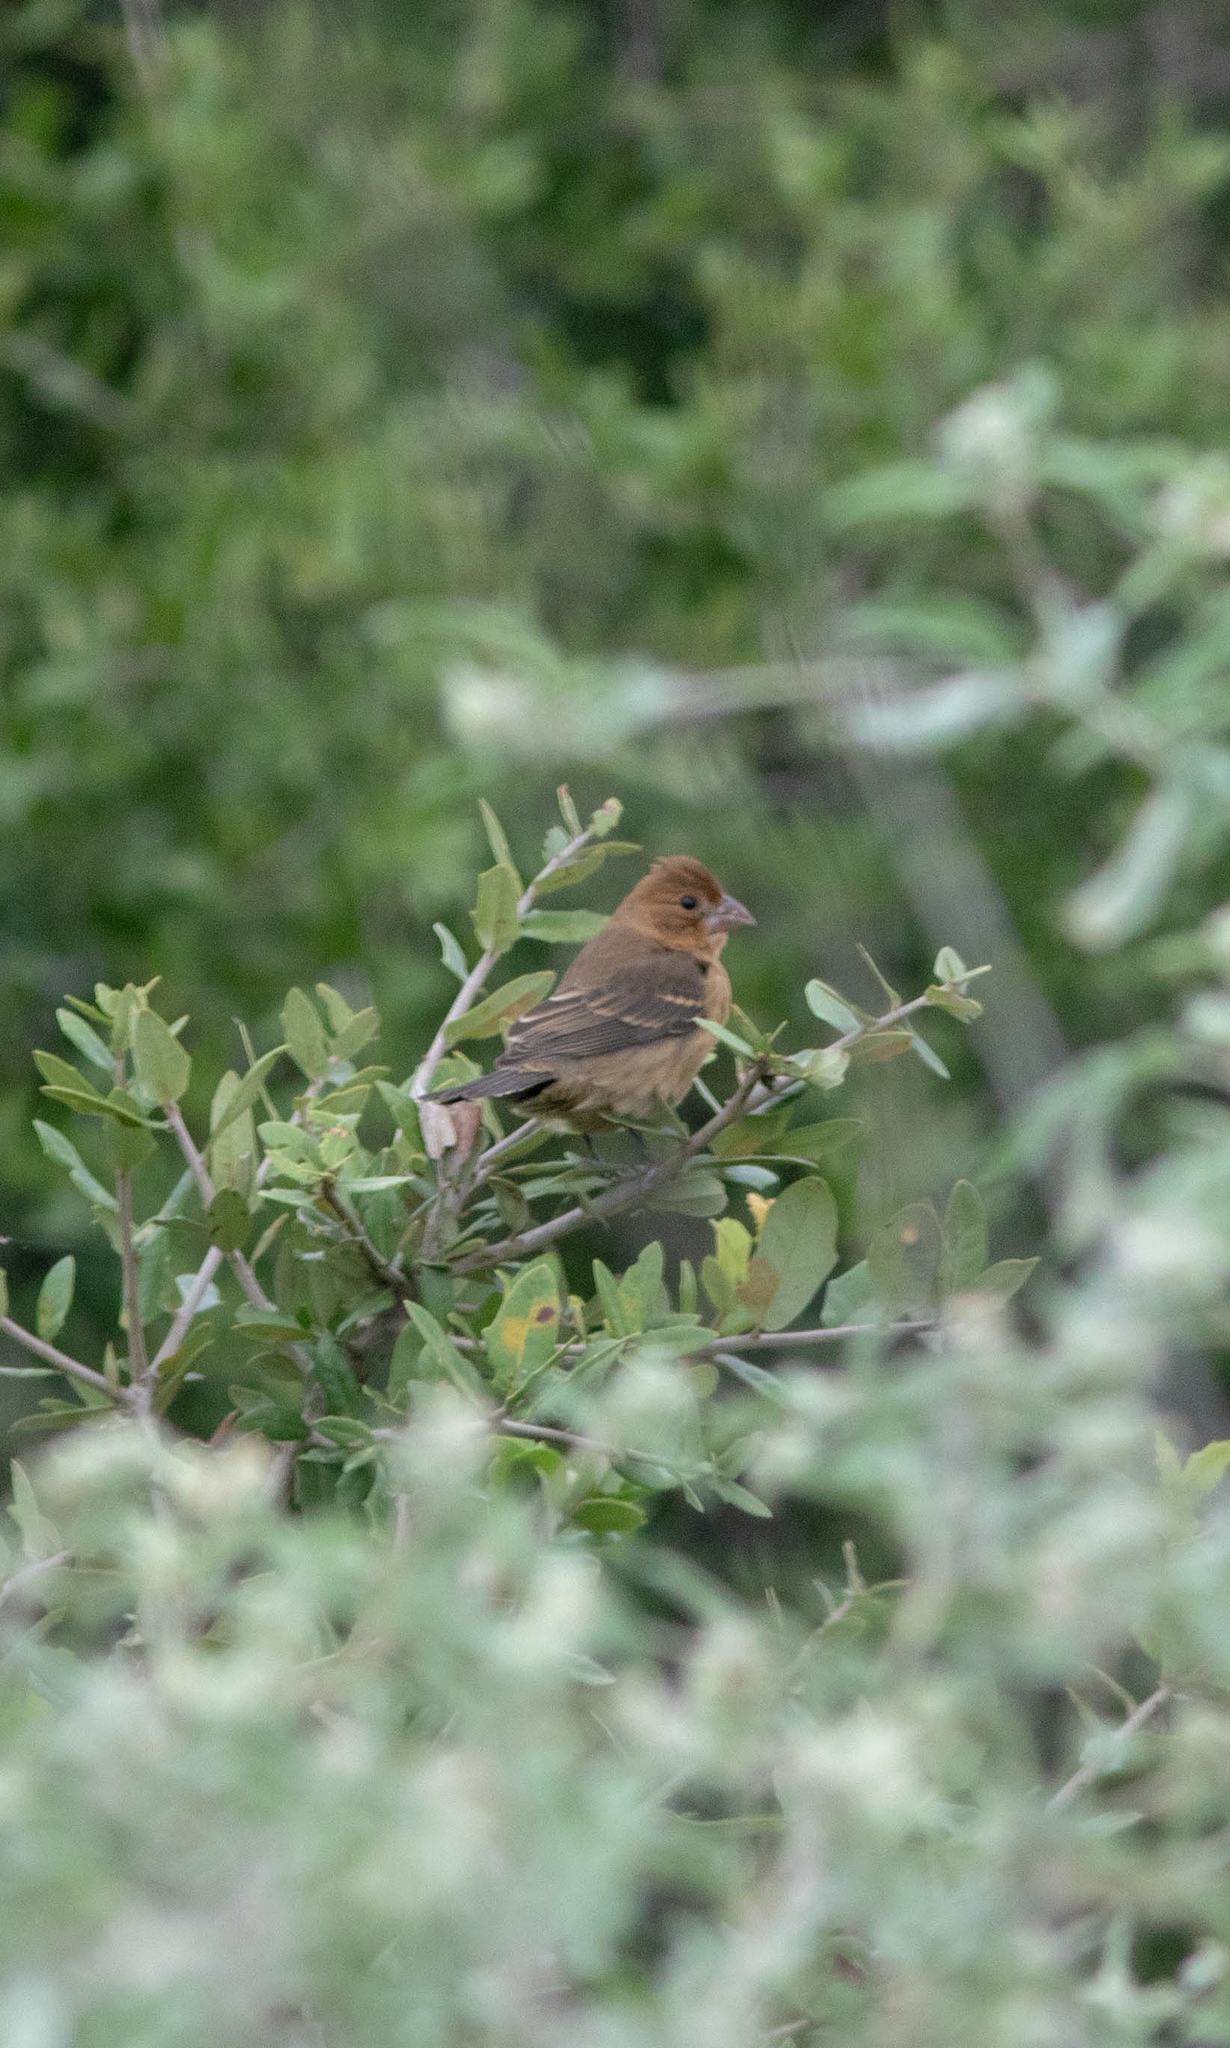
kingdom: Animalia
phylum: Chordata
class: Aves
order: Passeriformes
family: Cardinalidae
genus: Passerina
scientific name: Passerina caerulea
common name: Blue grosbeak
